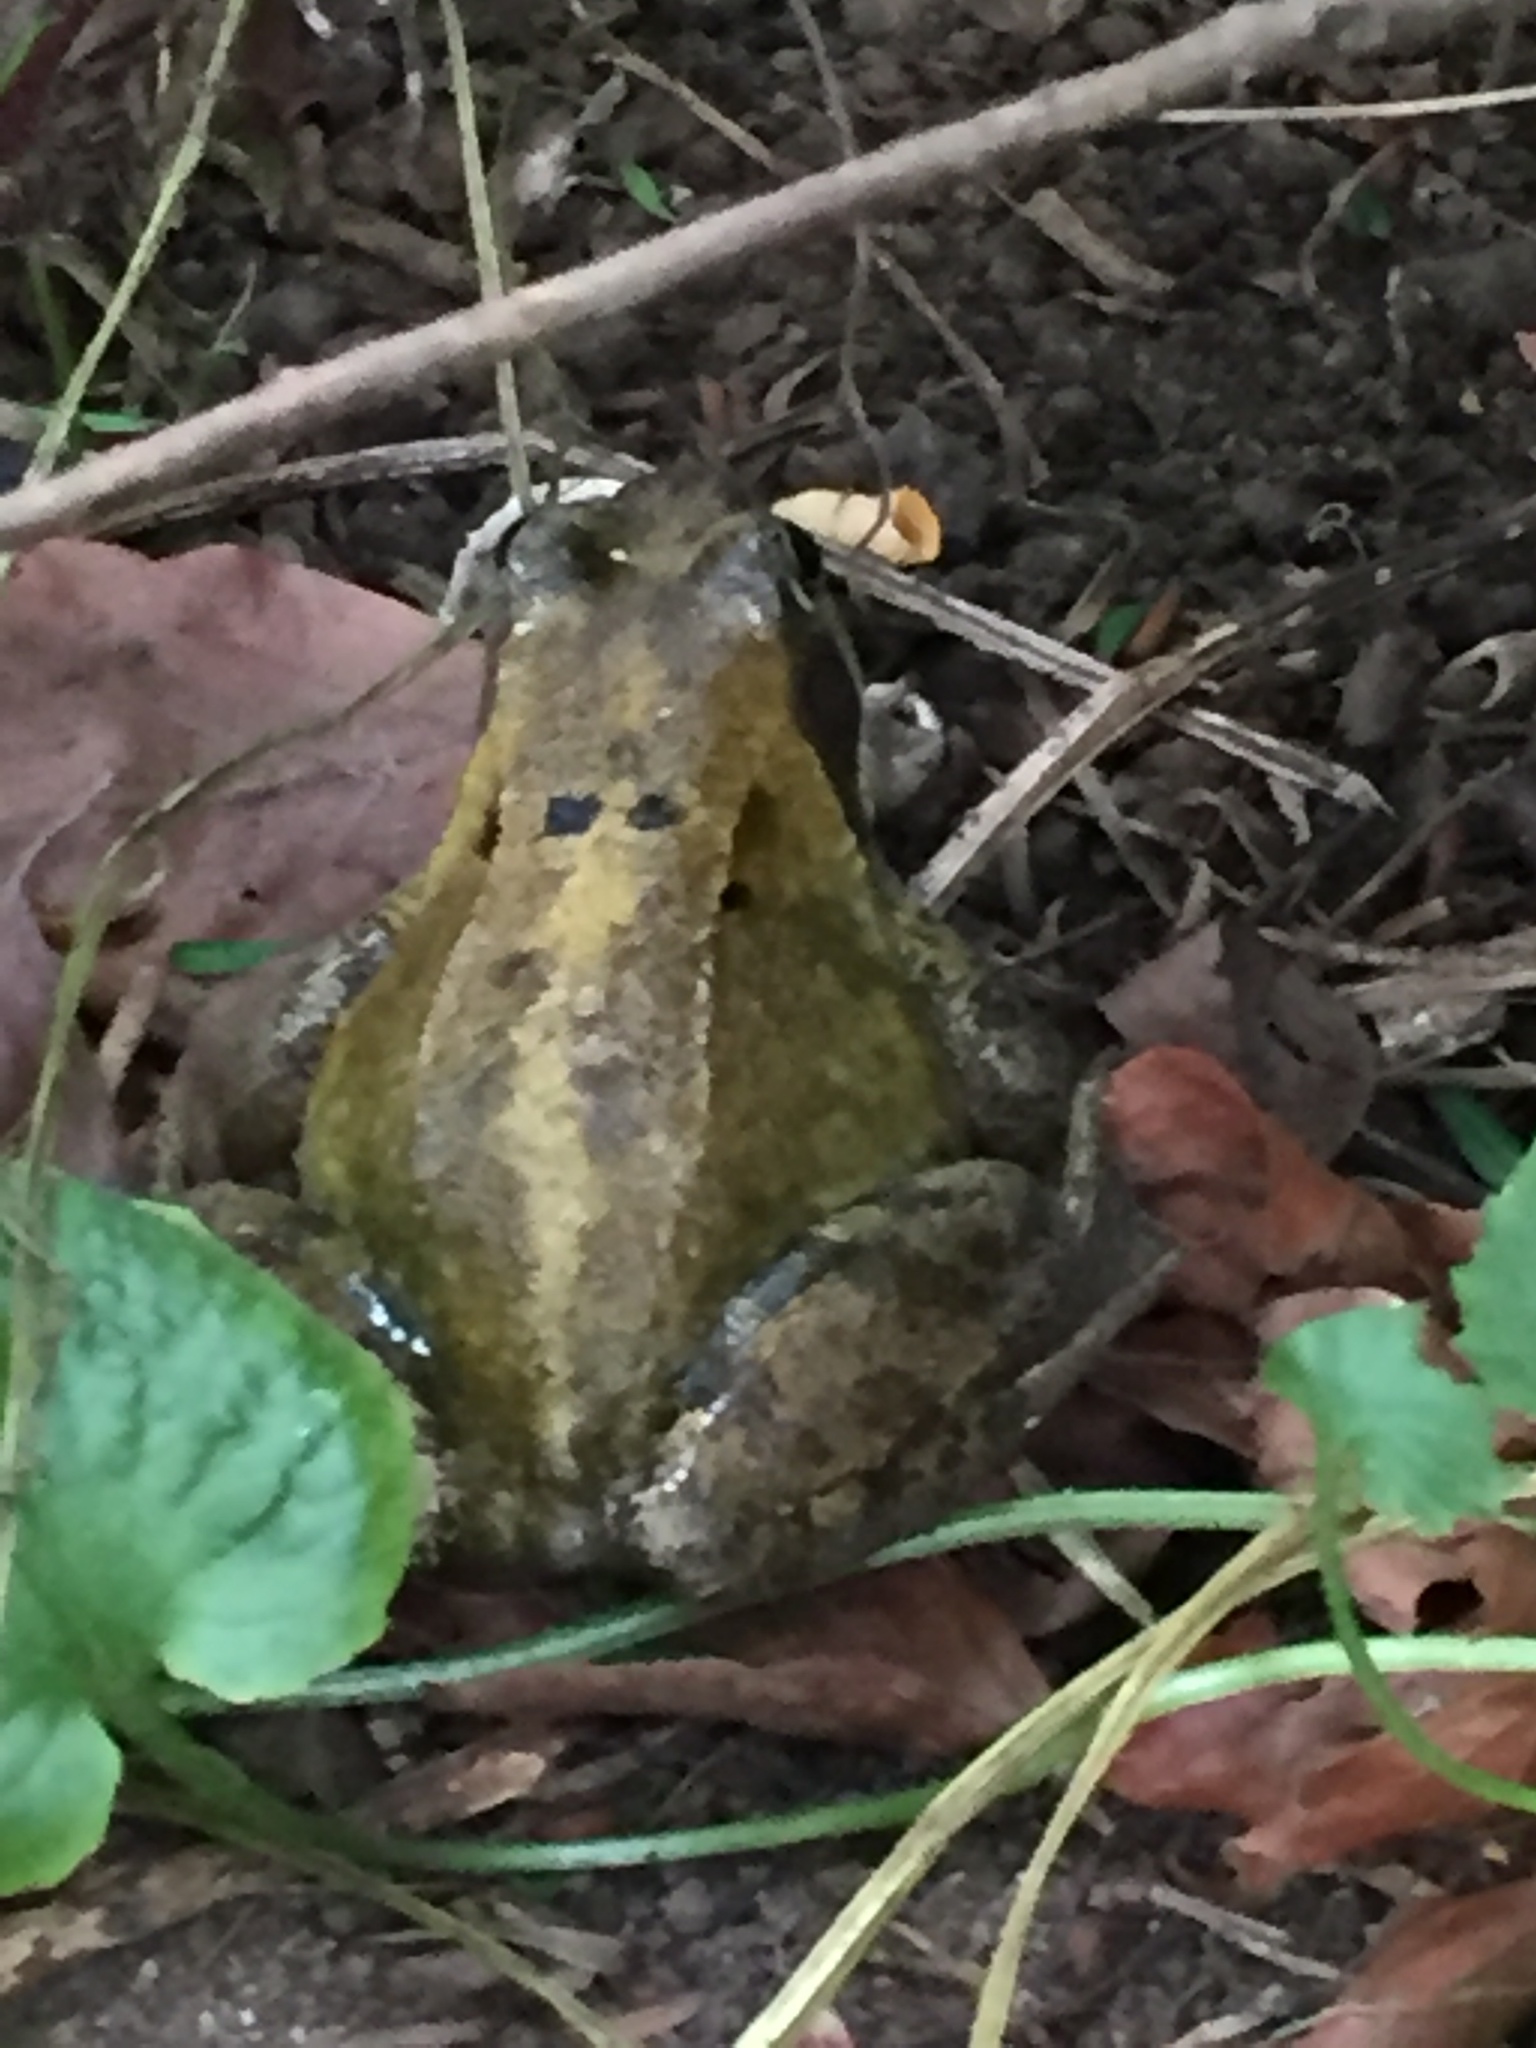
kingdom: Animalia
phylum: Chordata
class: Amphibia
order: Anura
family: Ranidae
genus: Rana
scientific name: Rana temporaria
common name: Common frog
